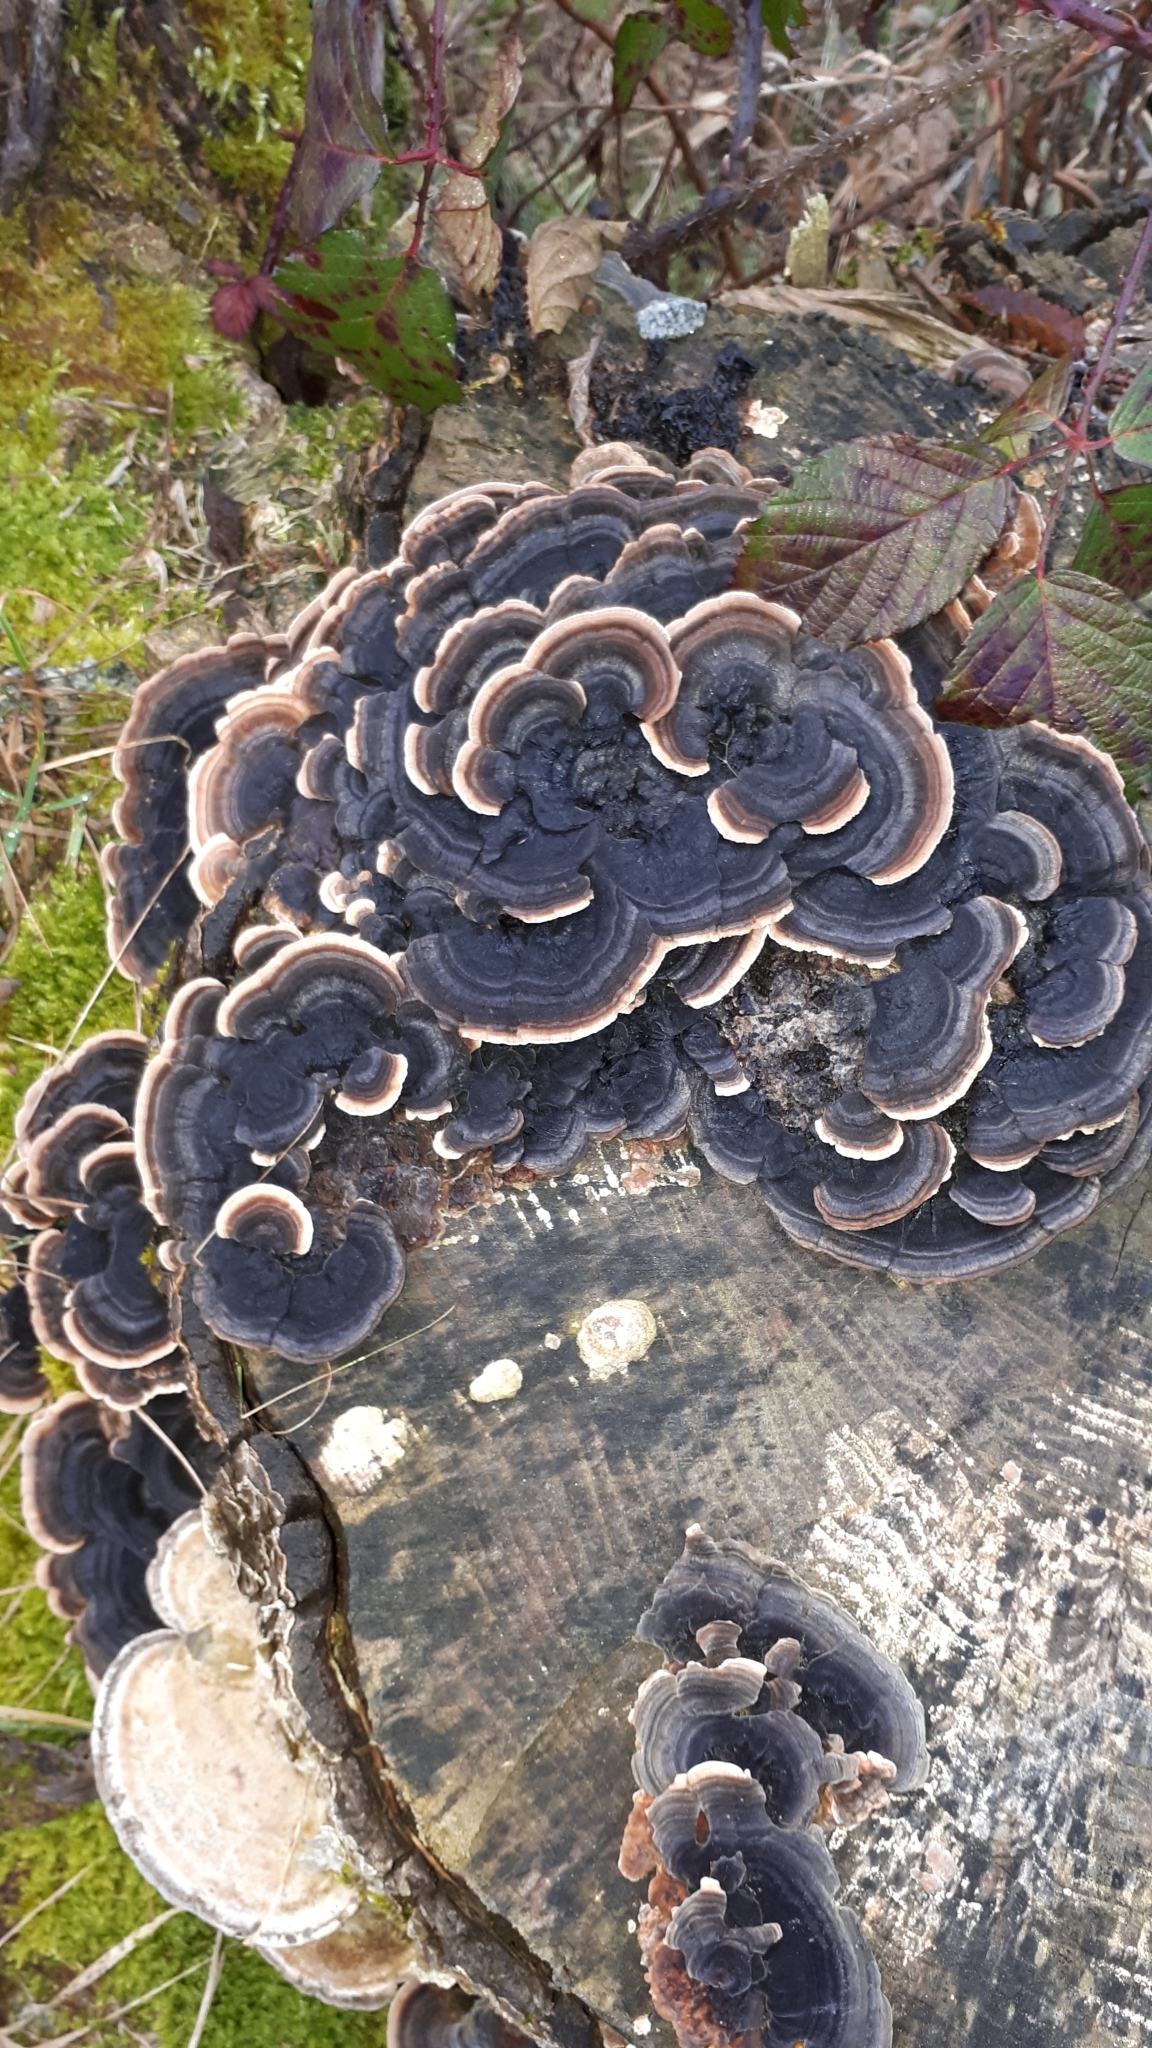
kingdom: Fungi
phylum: Basidiomycota
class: Agaricomycetes
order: Polyporales
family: Polyporaceae
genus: Trametes
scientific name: Trametes versicolor
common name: Turkeytail
